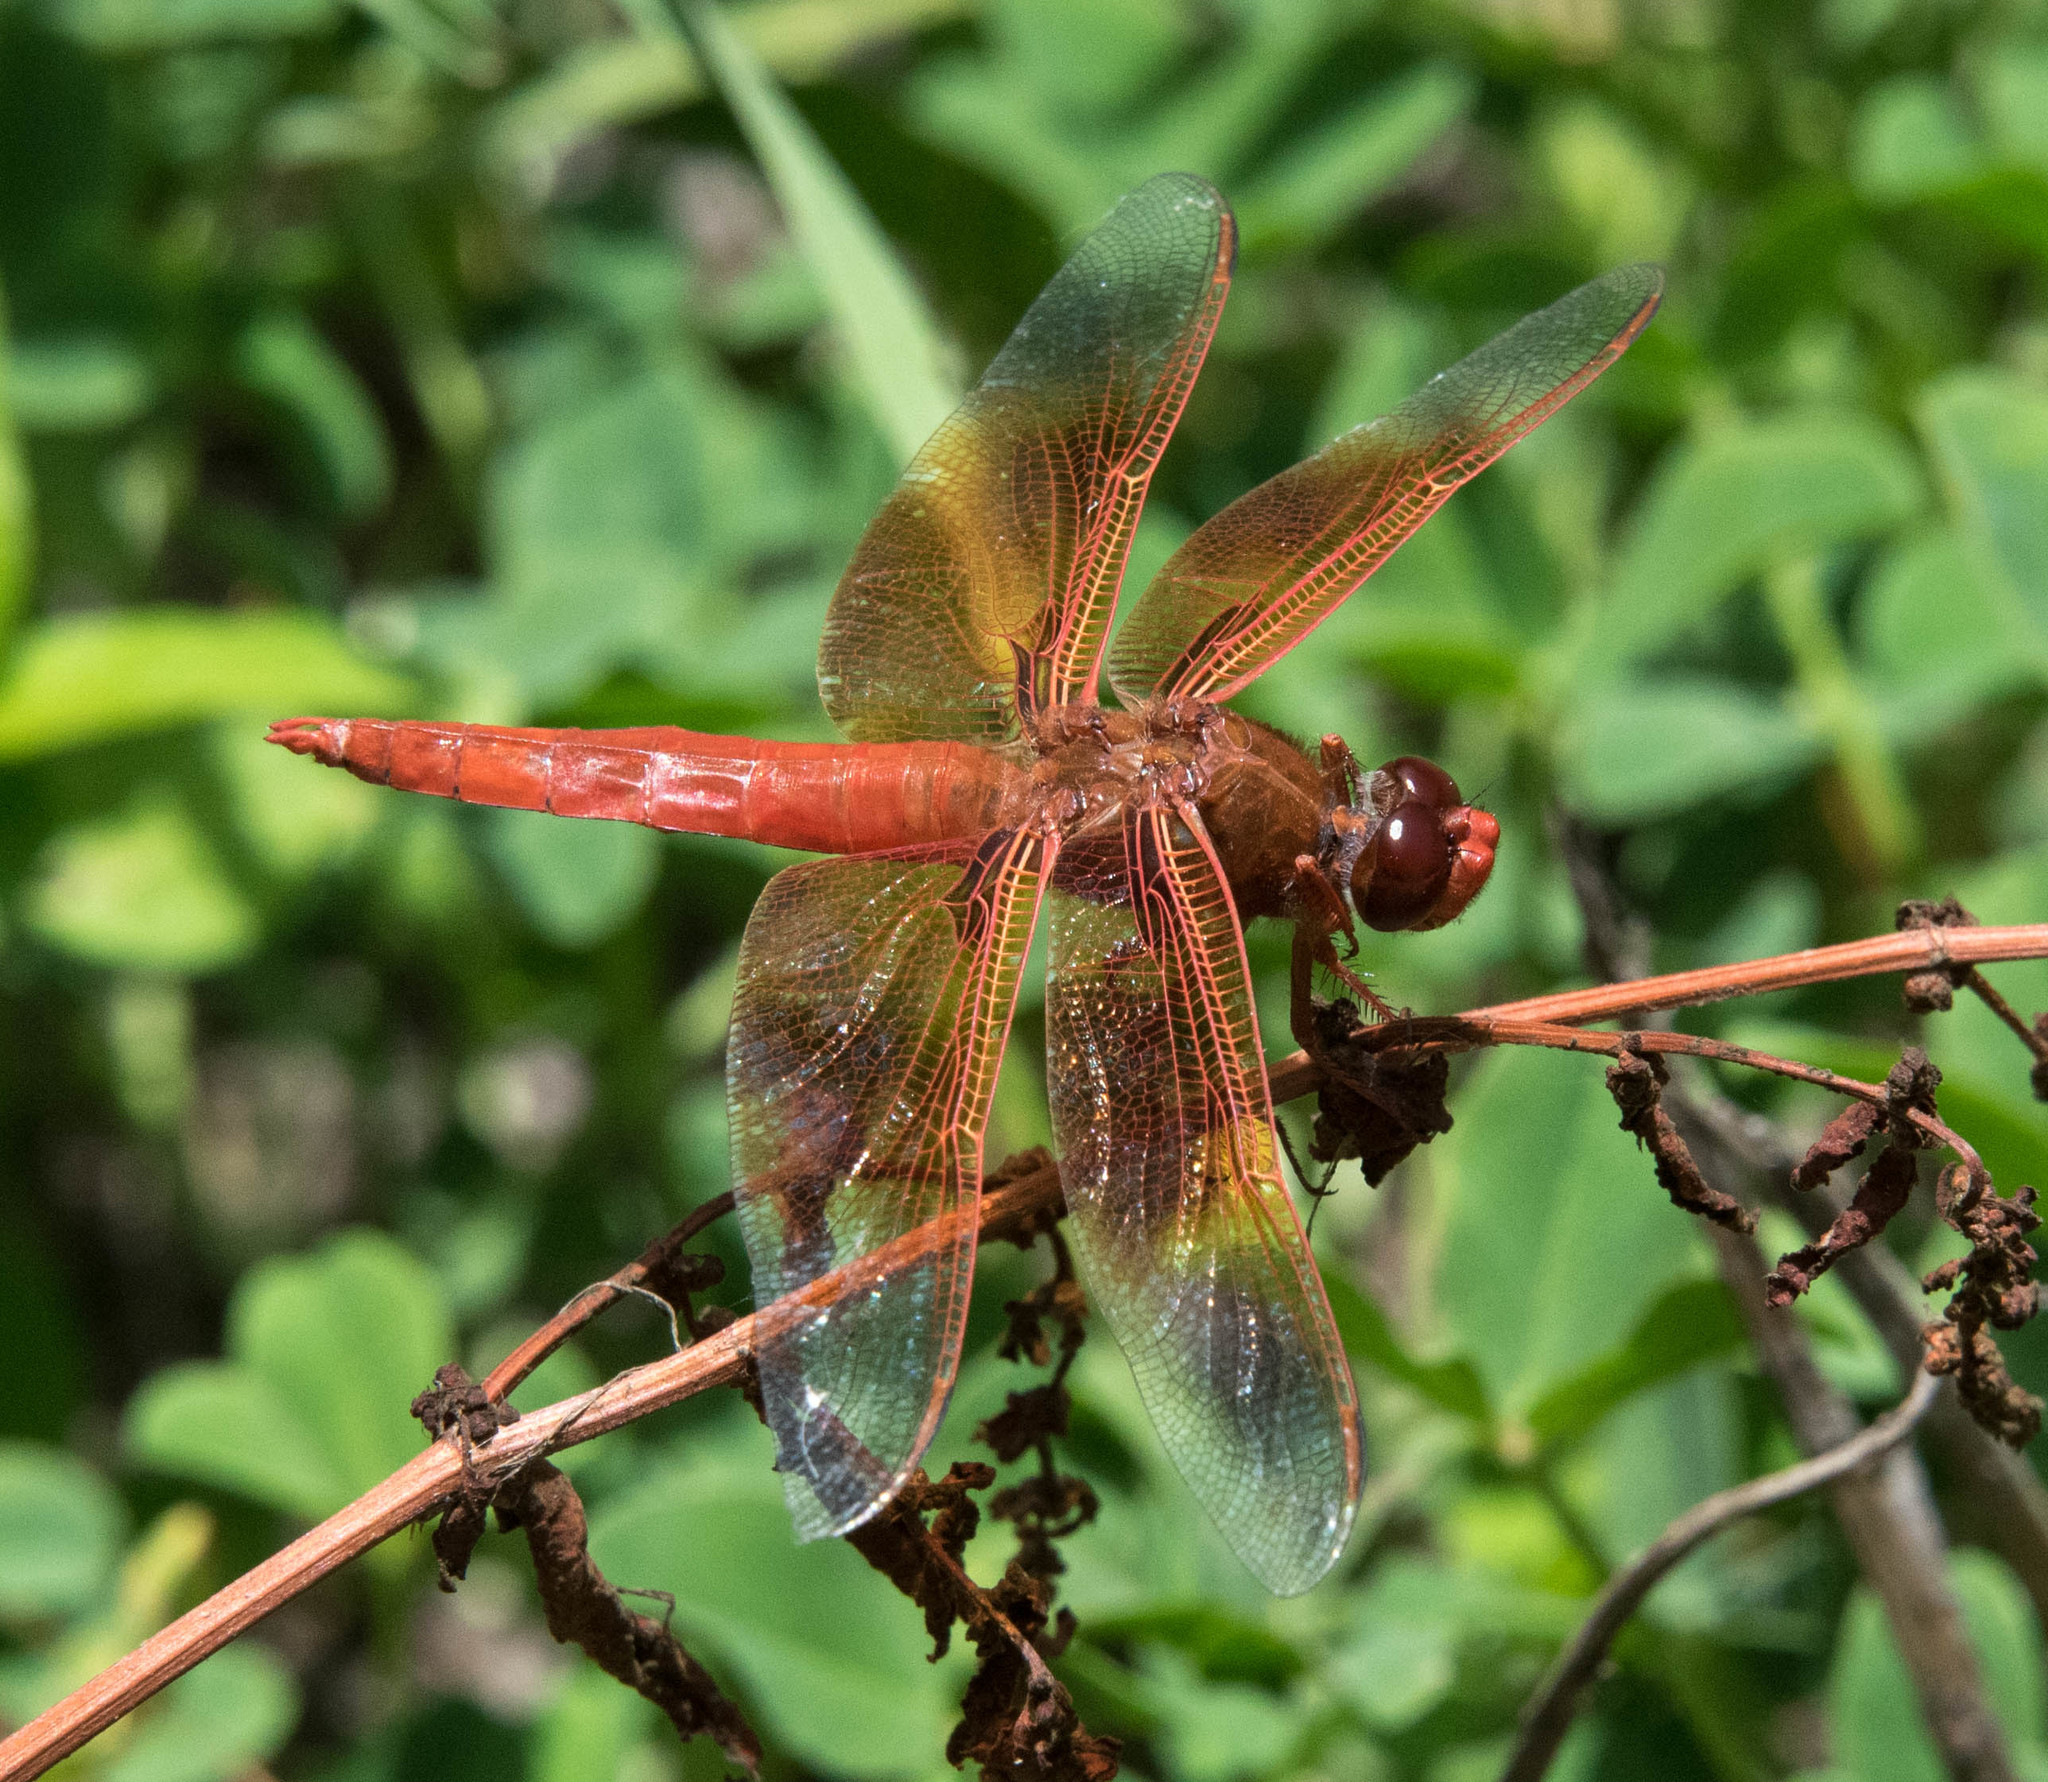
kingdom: Animalia
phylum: Arthropoda
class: Insecta
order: Odonata
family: Libellulidae
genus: Libellula
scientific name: Libellula saturata
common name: Flame skimmer
